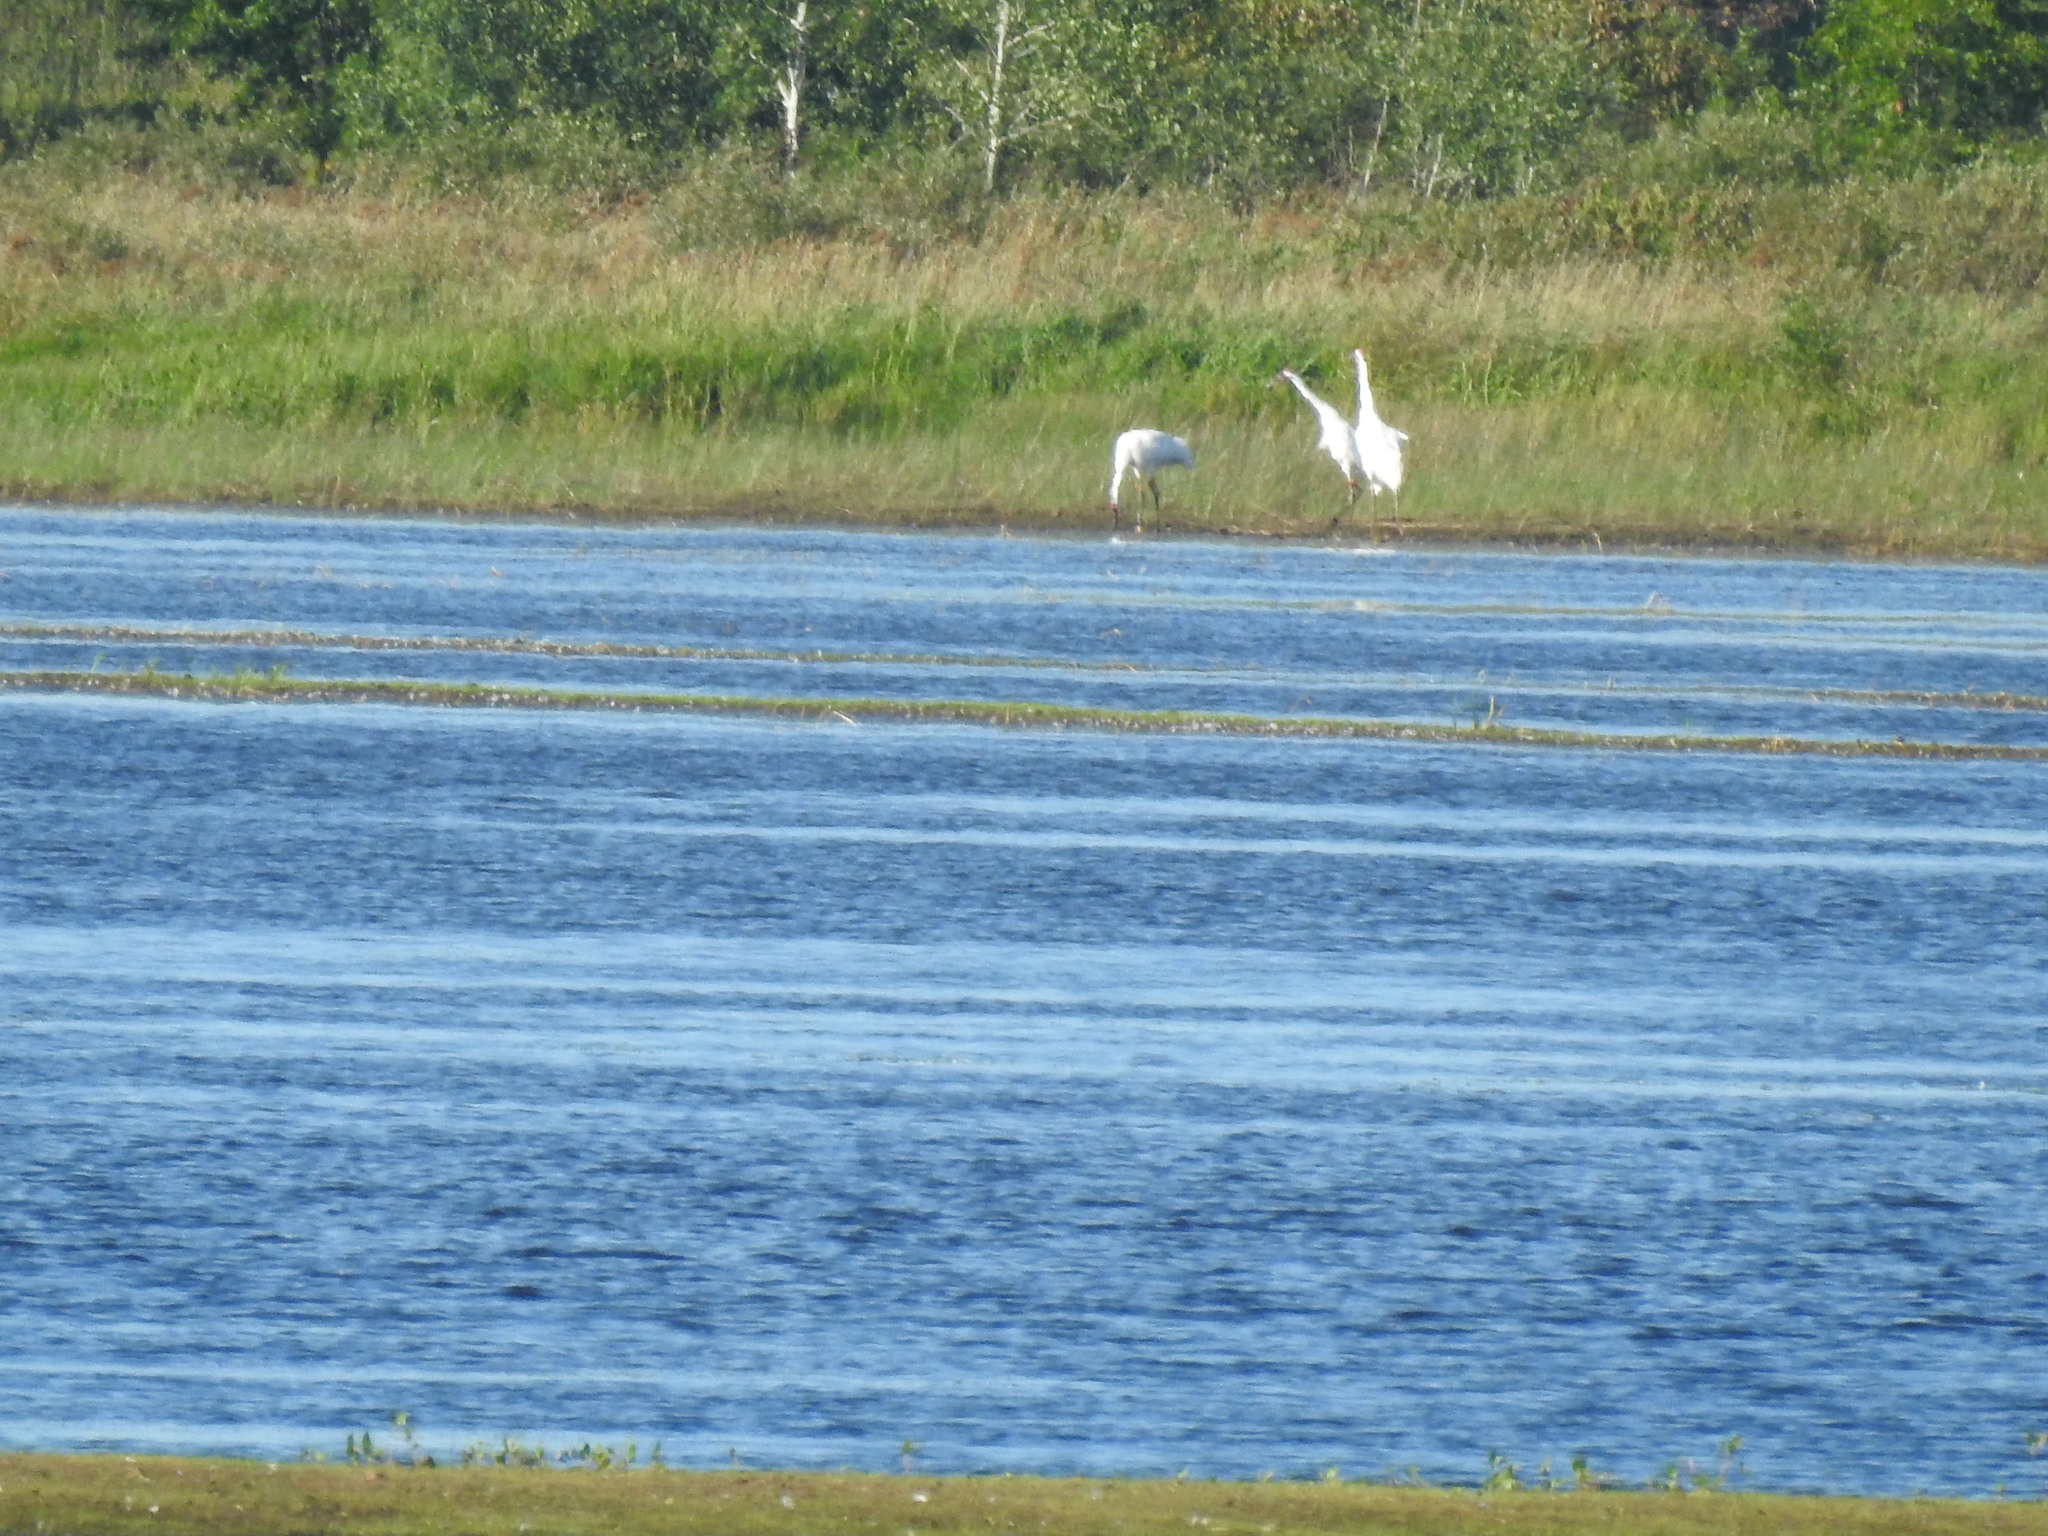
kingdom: Animalia
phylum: Chordata
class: Aves
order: Gruiformes
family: Gruidae
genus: Grus
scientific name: Grus americana
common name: Whooping crane
